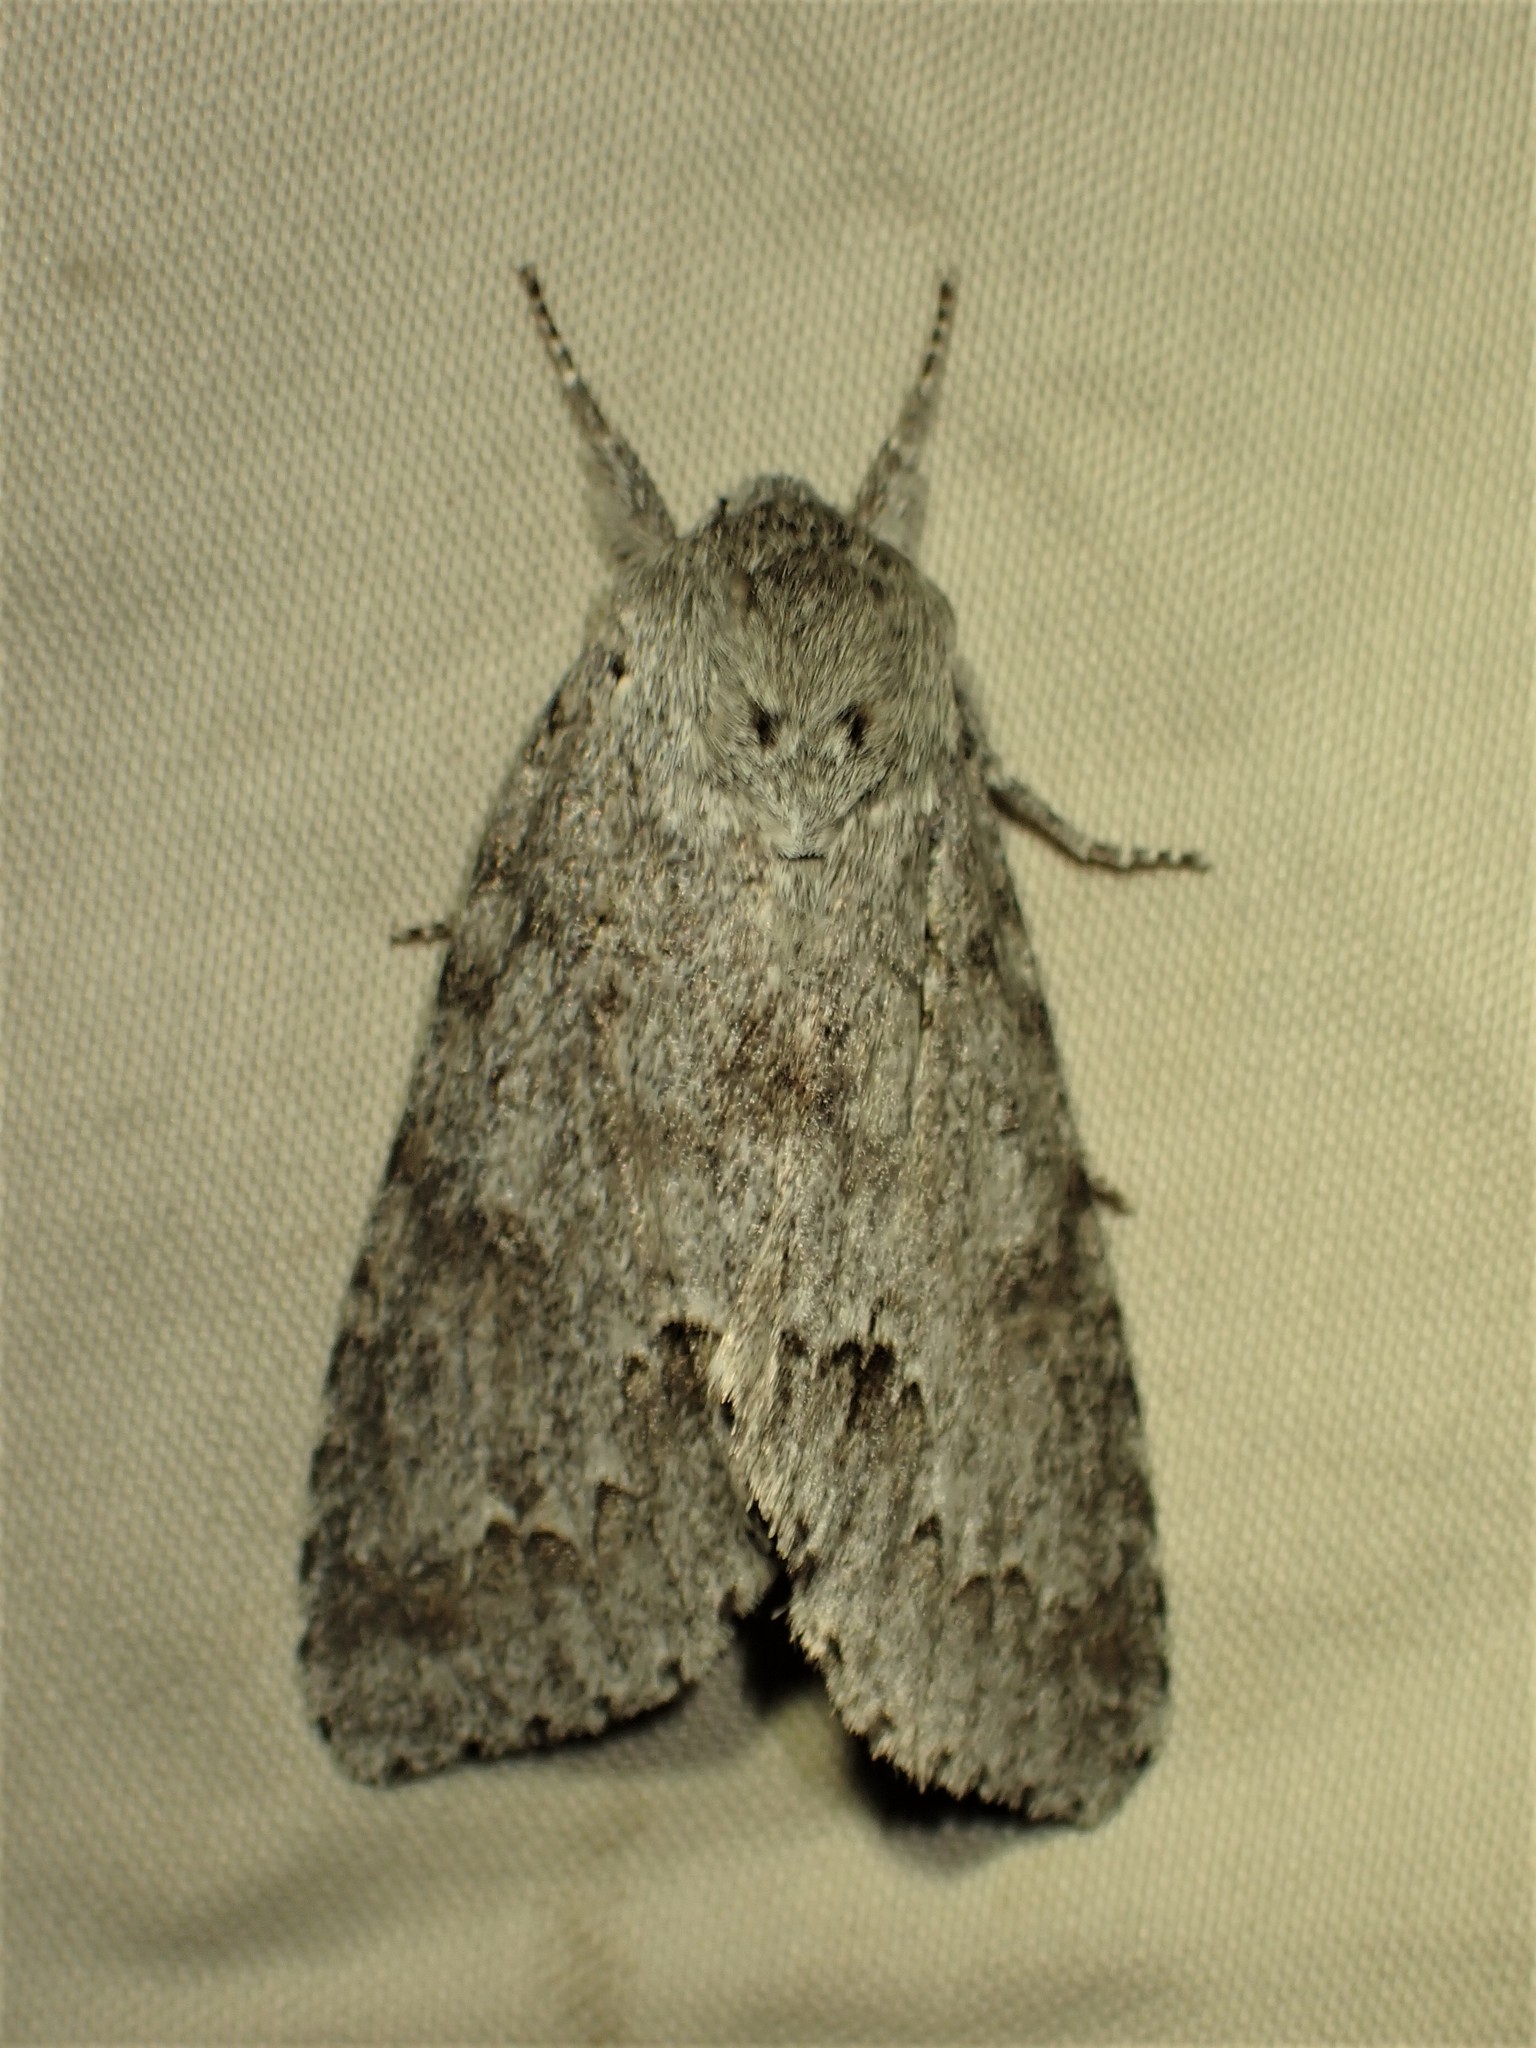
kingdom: Animalia
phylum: Arthropoda
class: Insecta
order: Lepidoptera
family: Noctuidae
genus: Acronicta
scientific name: Acronicta insita
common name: Large gray dagger
